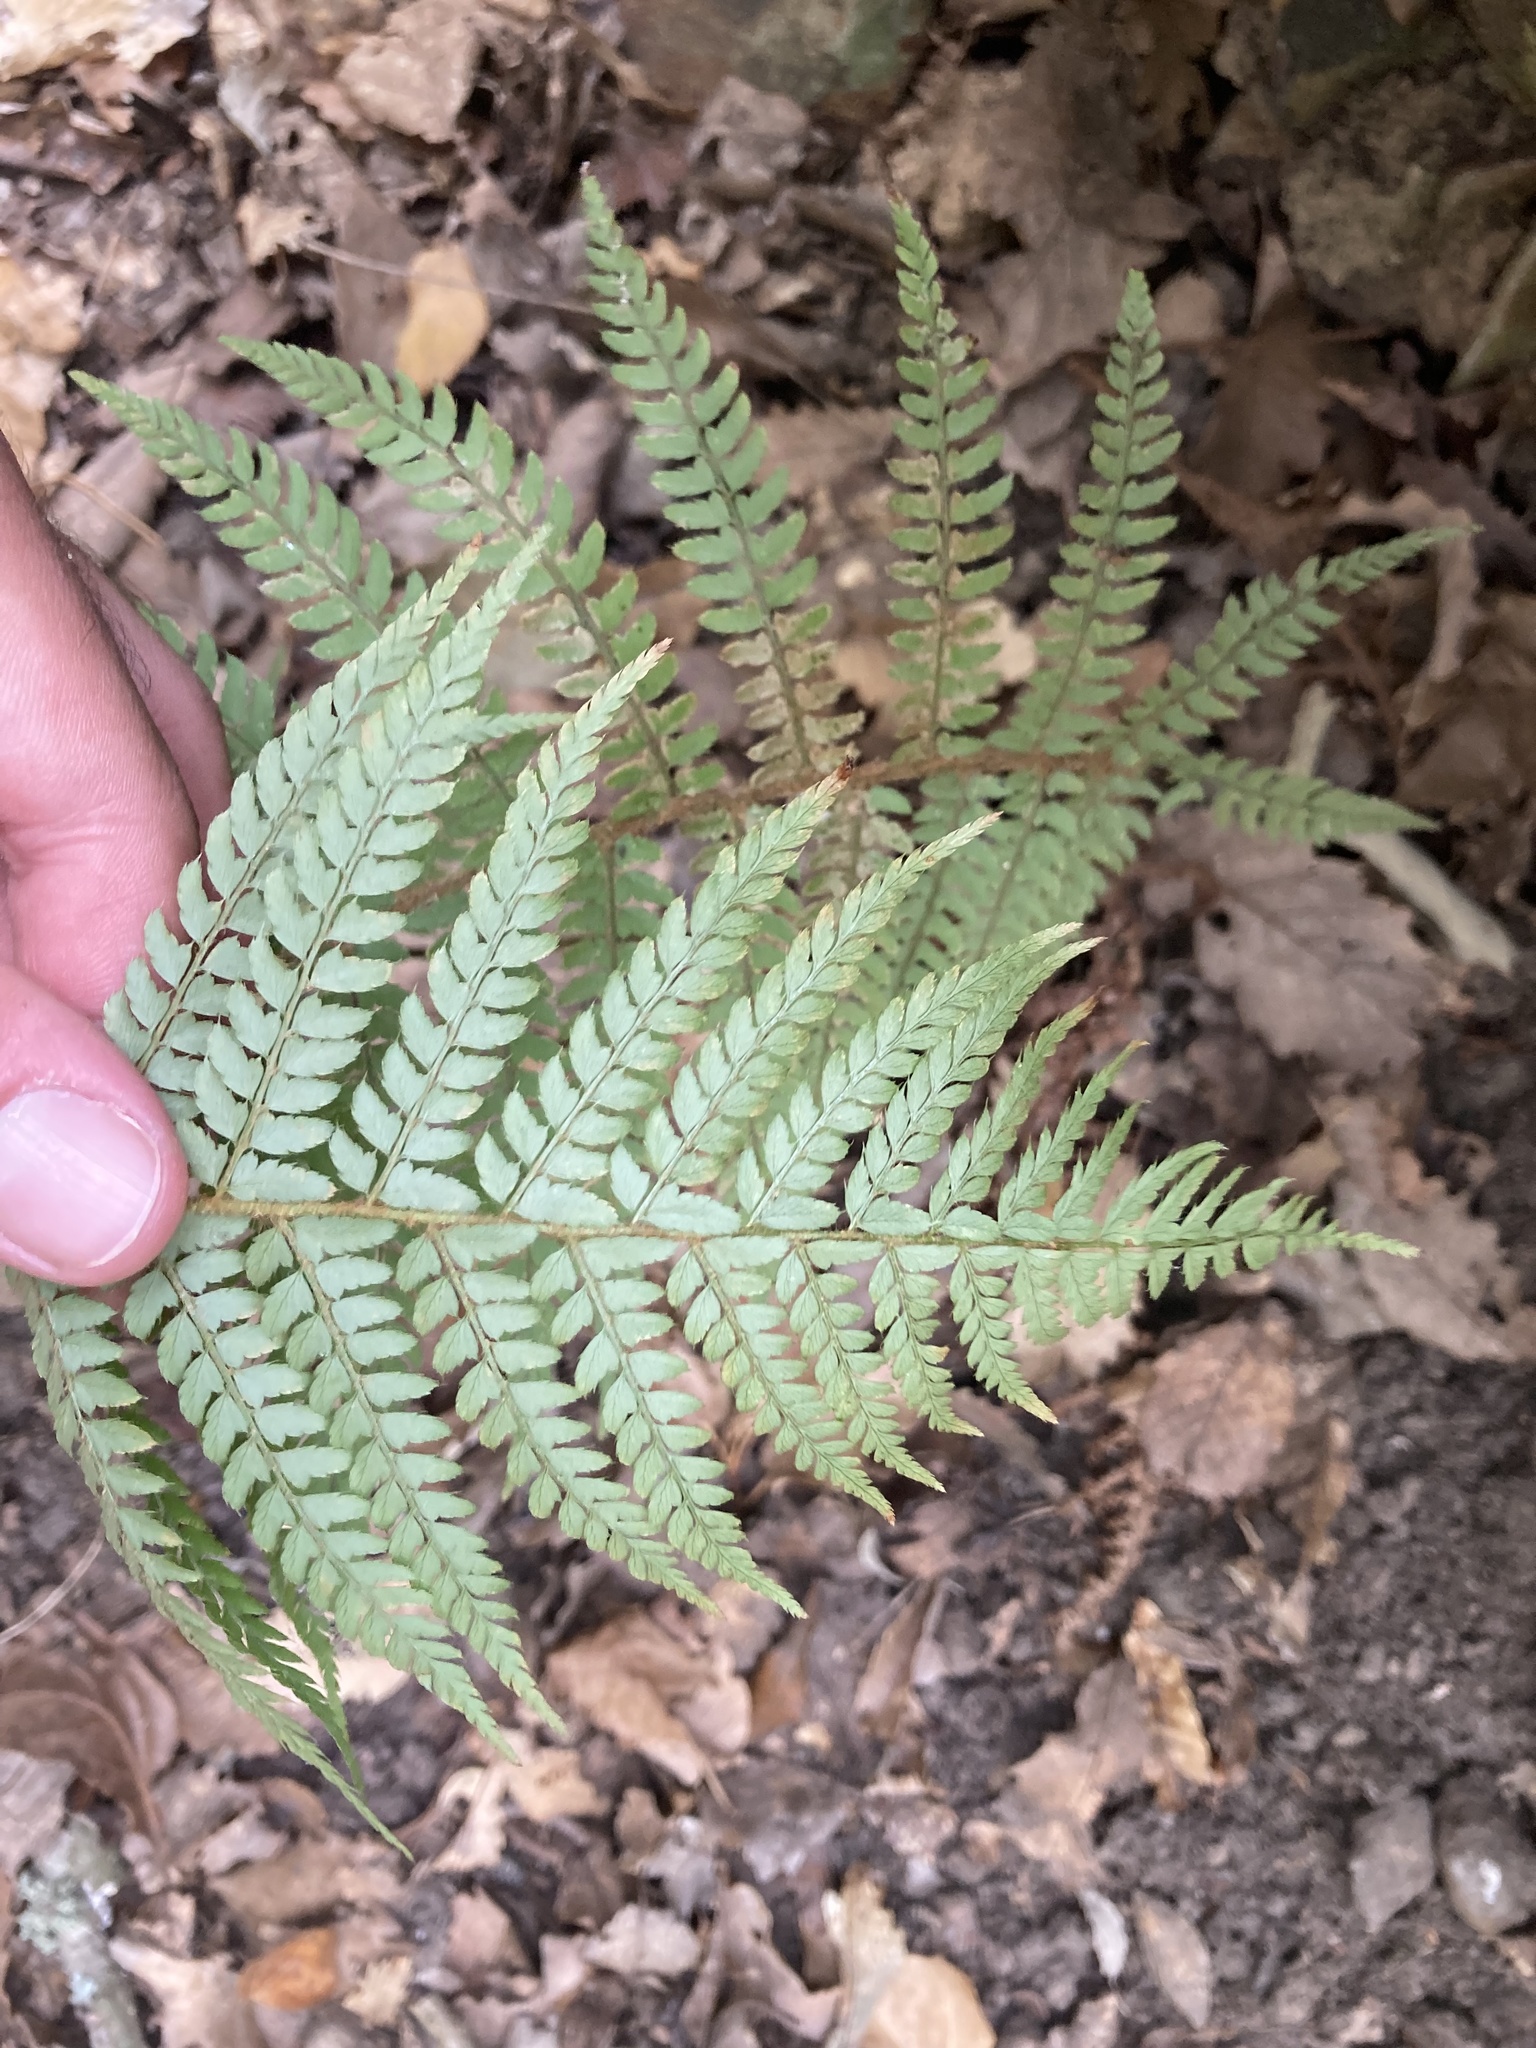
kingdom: Plantae
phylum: Tracheophyta
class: Polypodiopsida
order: Polypodiales
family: Dryopteridaceae
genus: Polystichum
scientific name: Polystichum setiferum
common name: Soft shield-fern
